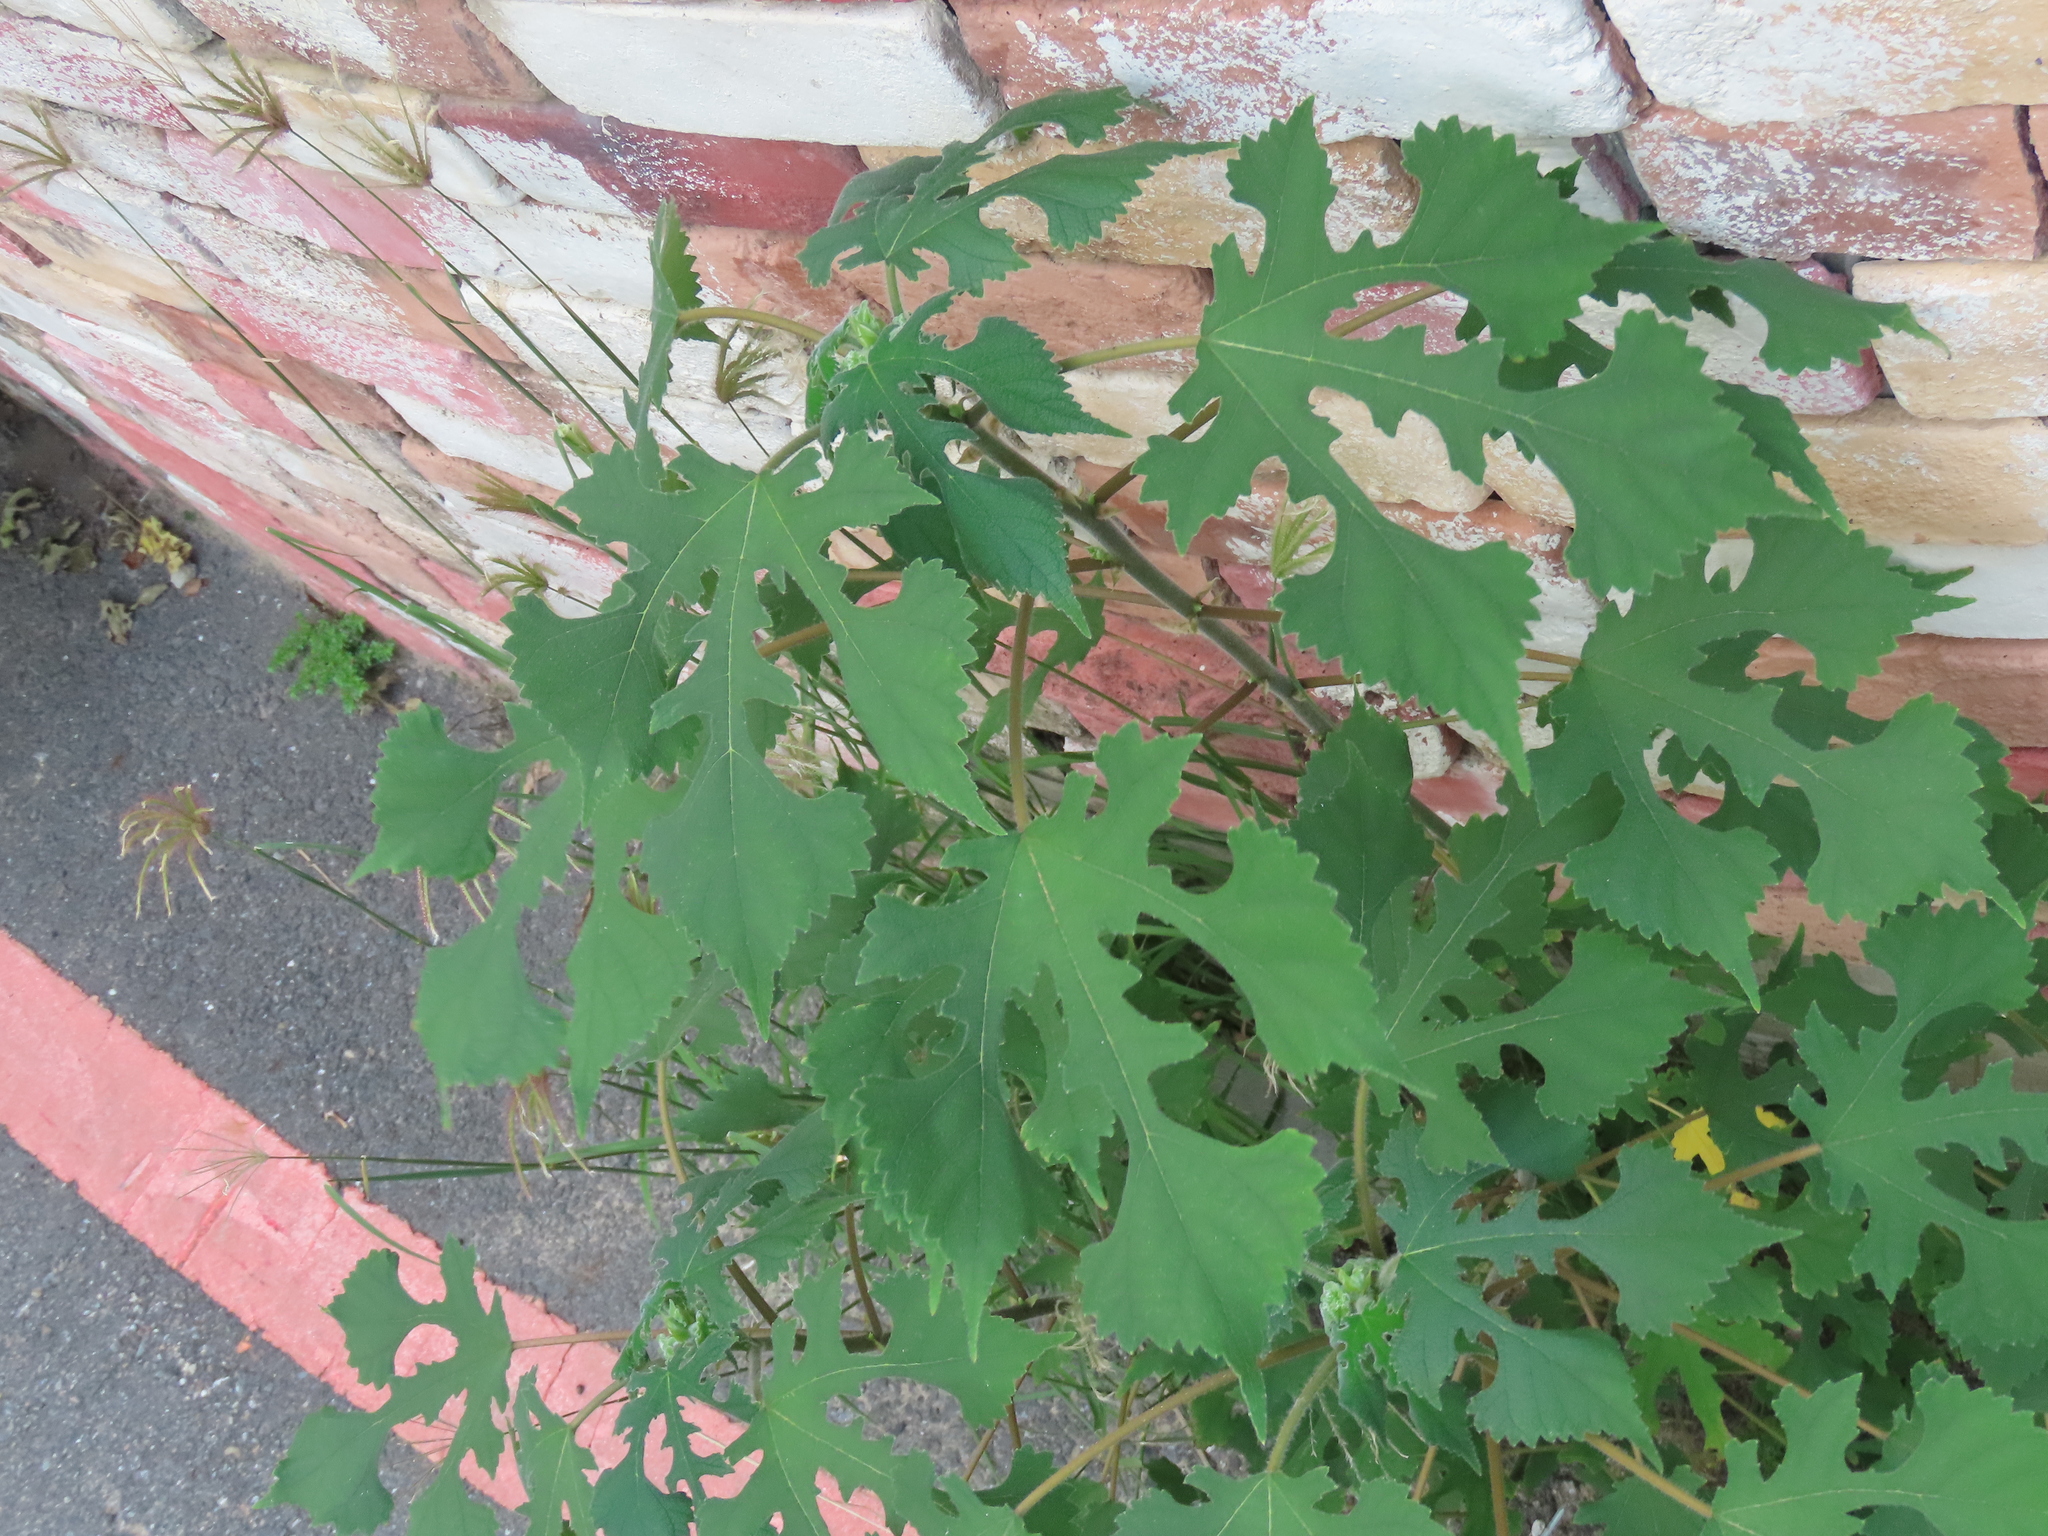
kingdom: Plantae
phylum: Tracheophyta
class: Magnoliopsida
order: Rosales
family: Moraceae
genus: Broussonetia
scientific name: Broussonetia papyrifera
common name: Paper mulberry
